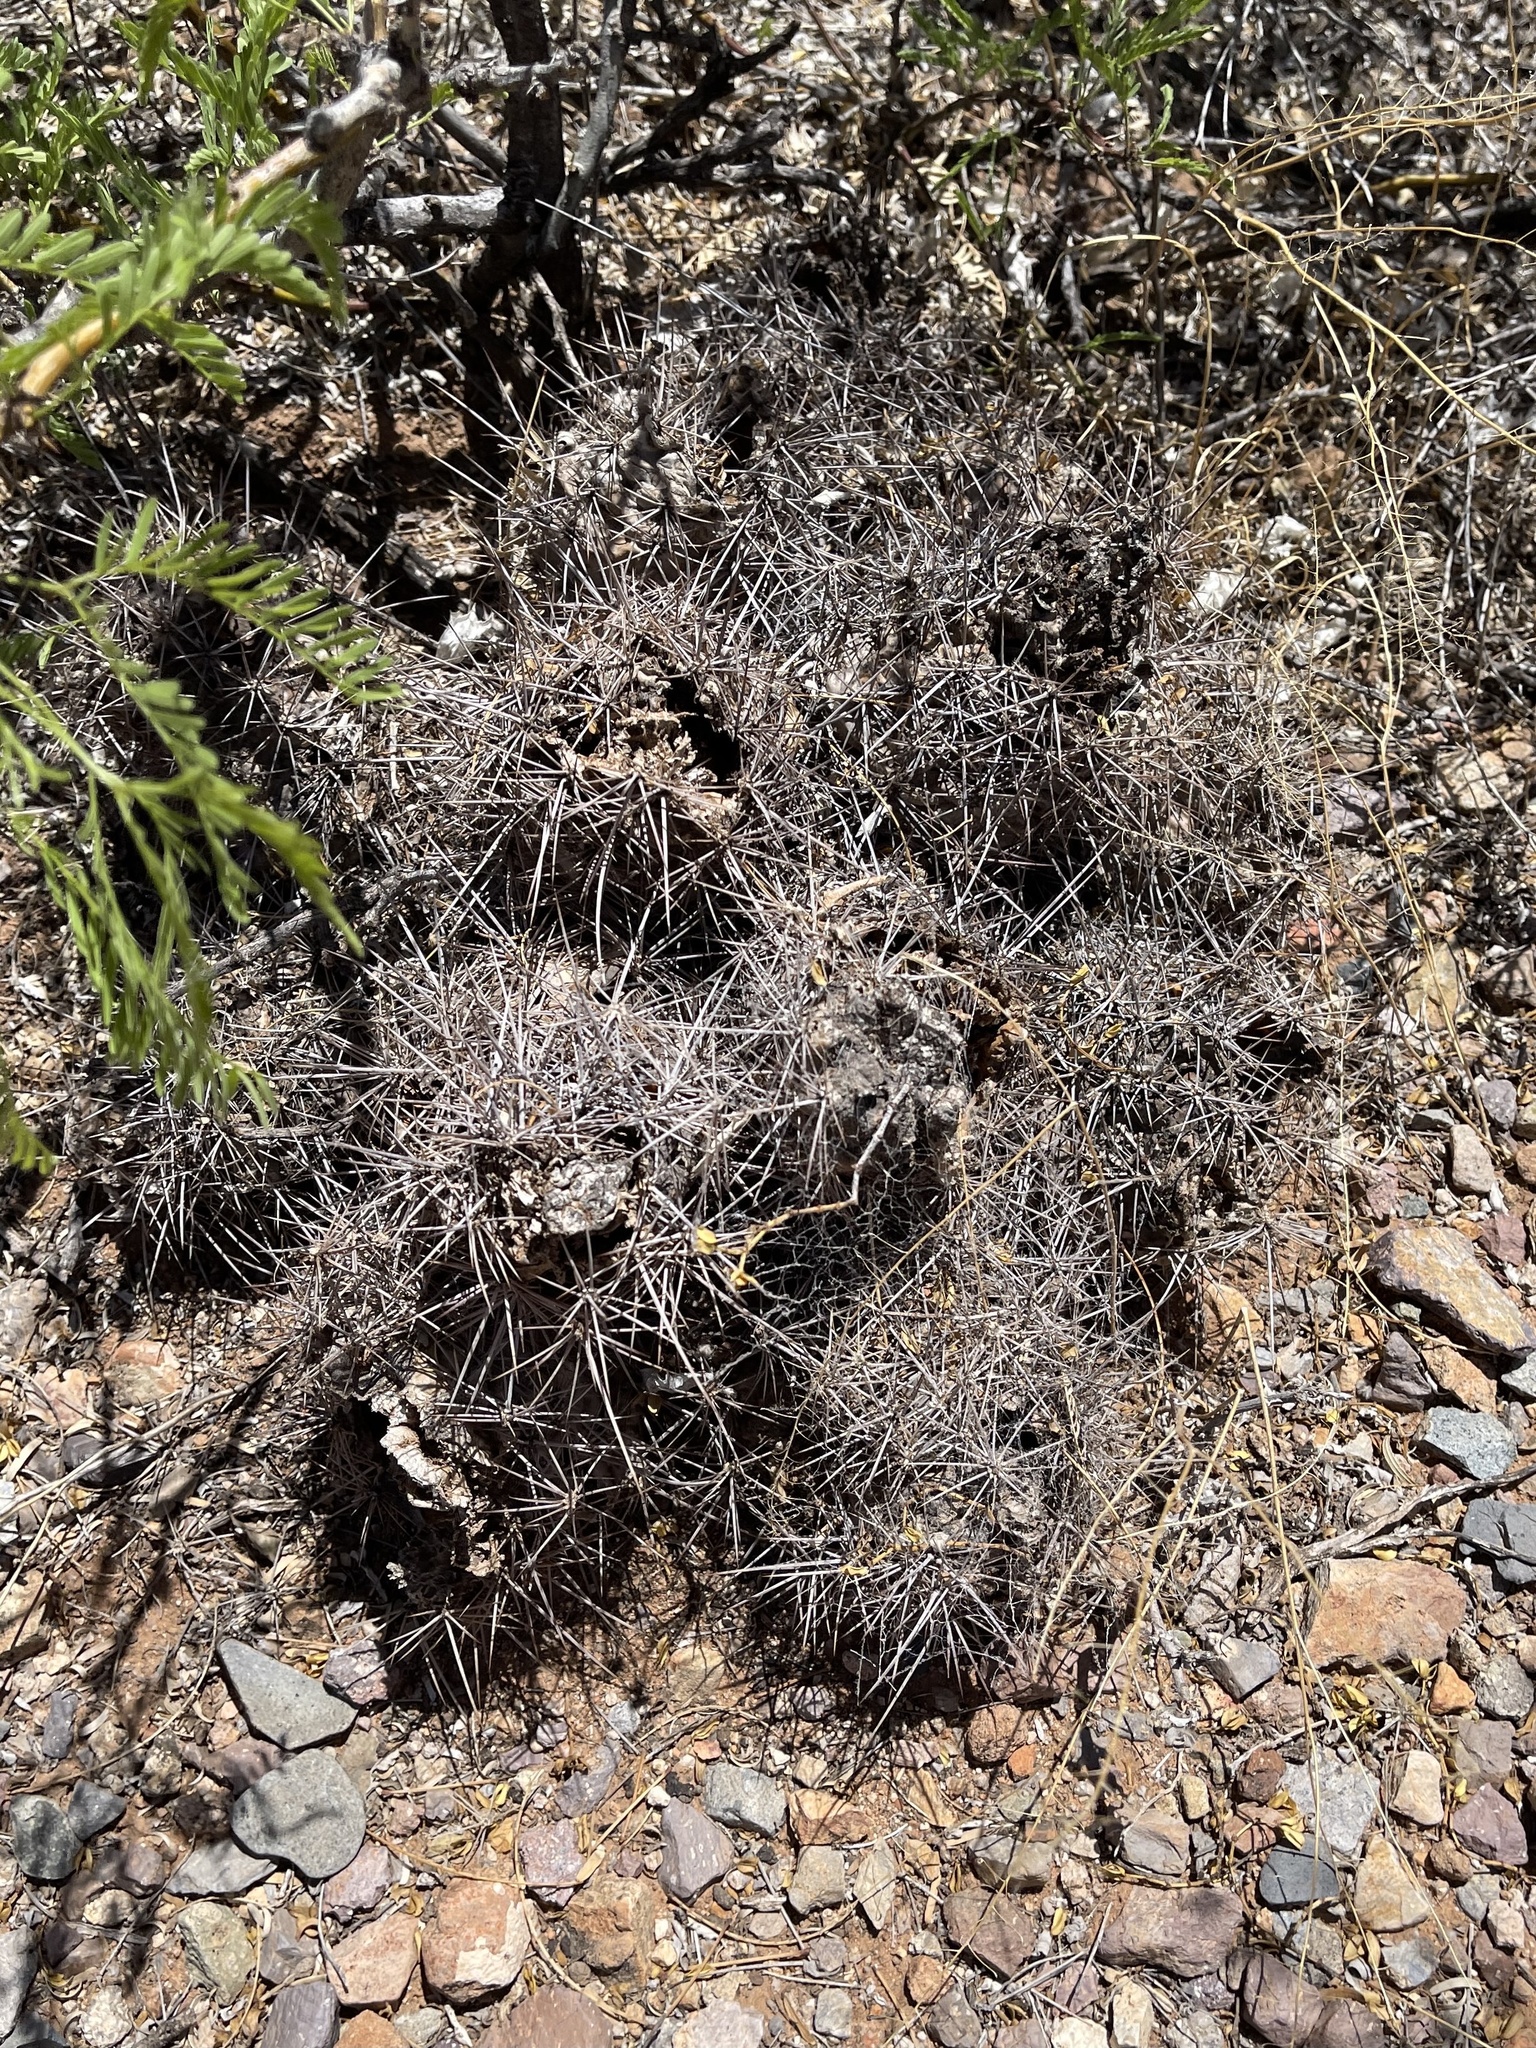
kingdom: Plantae
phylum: Tracheophyta
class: Magnoliopsida
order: Caryophyllales
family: Cactaceae
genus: Coryphantha
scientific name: Coryphantha macromeris
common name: Nipple beehive cactus
